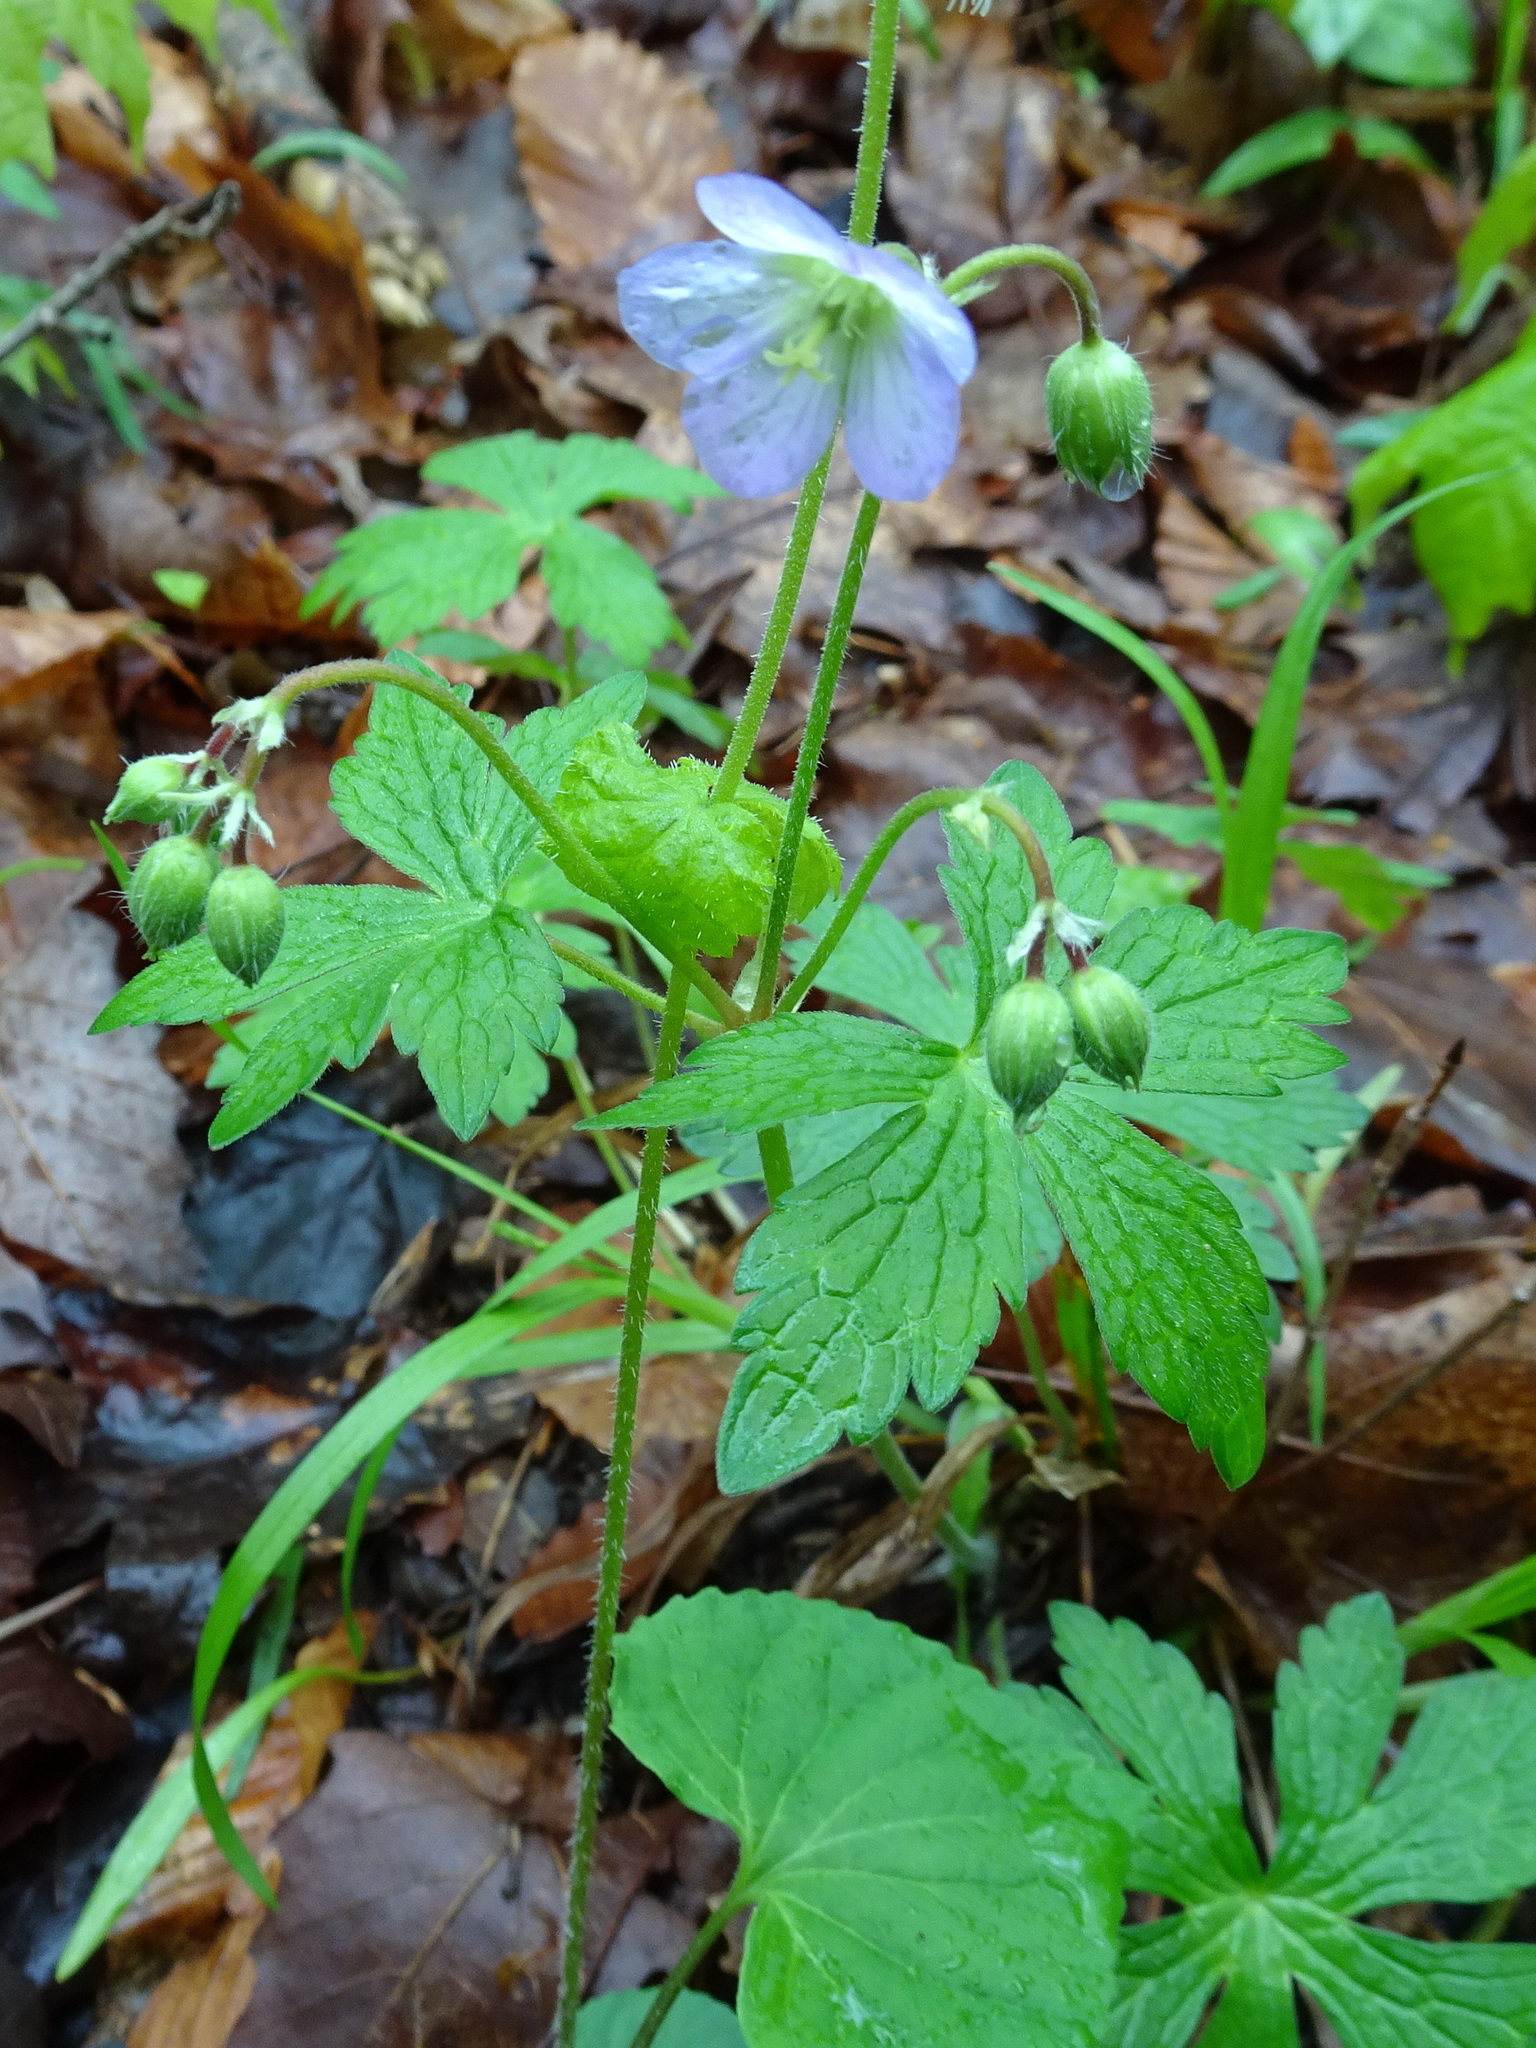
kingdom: Plantae
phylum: Tracheophyta
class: Magnoliopsida
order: Geraniales
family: Geraniaceae
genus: Geranium
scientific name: Geranium maculatum
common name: Spotted geranium
